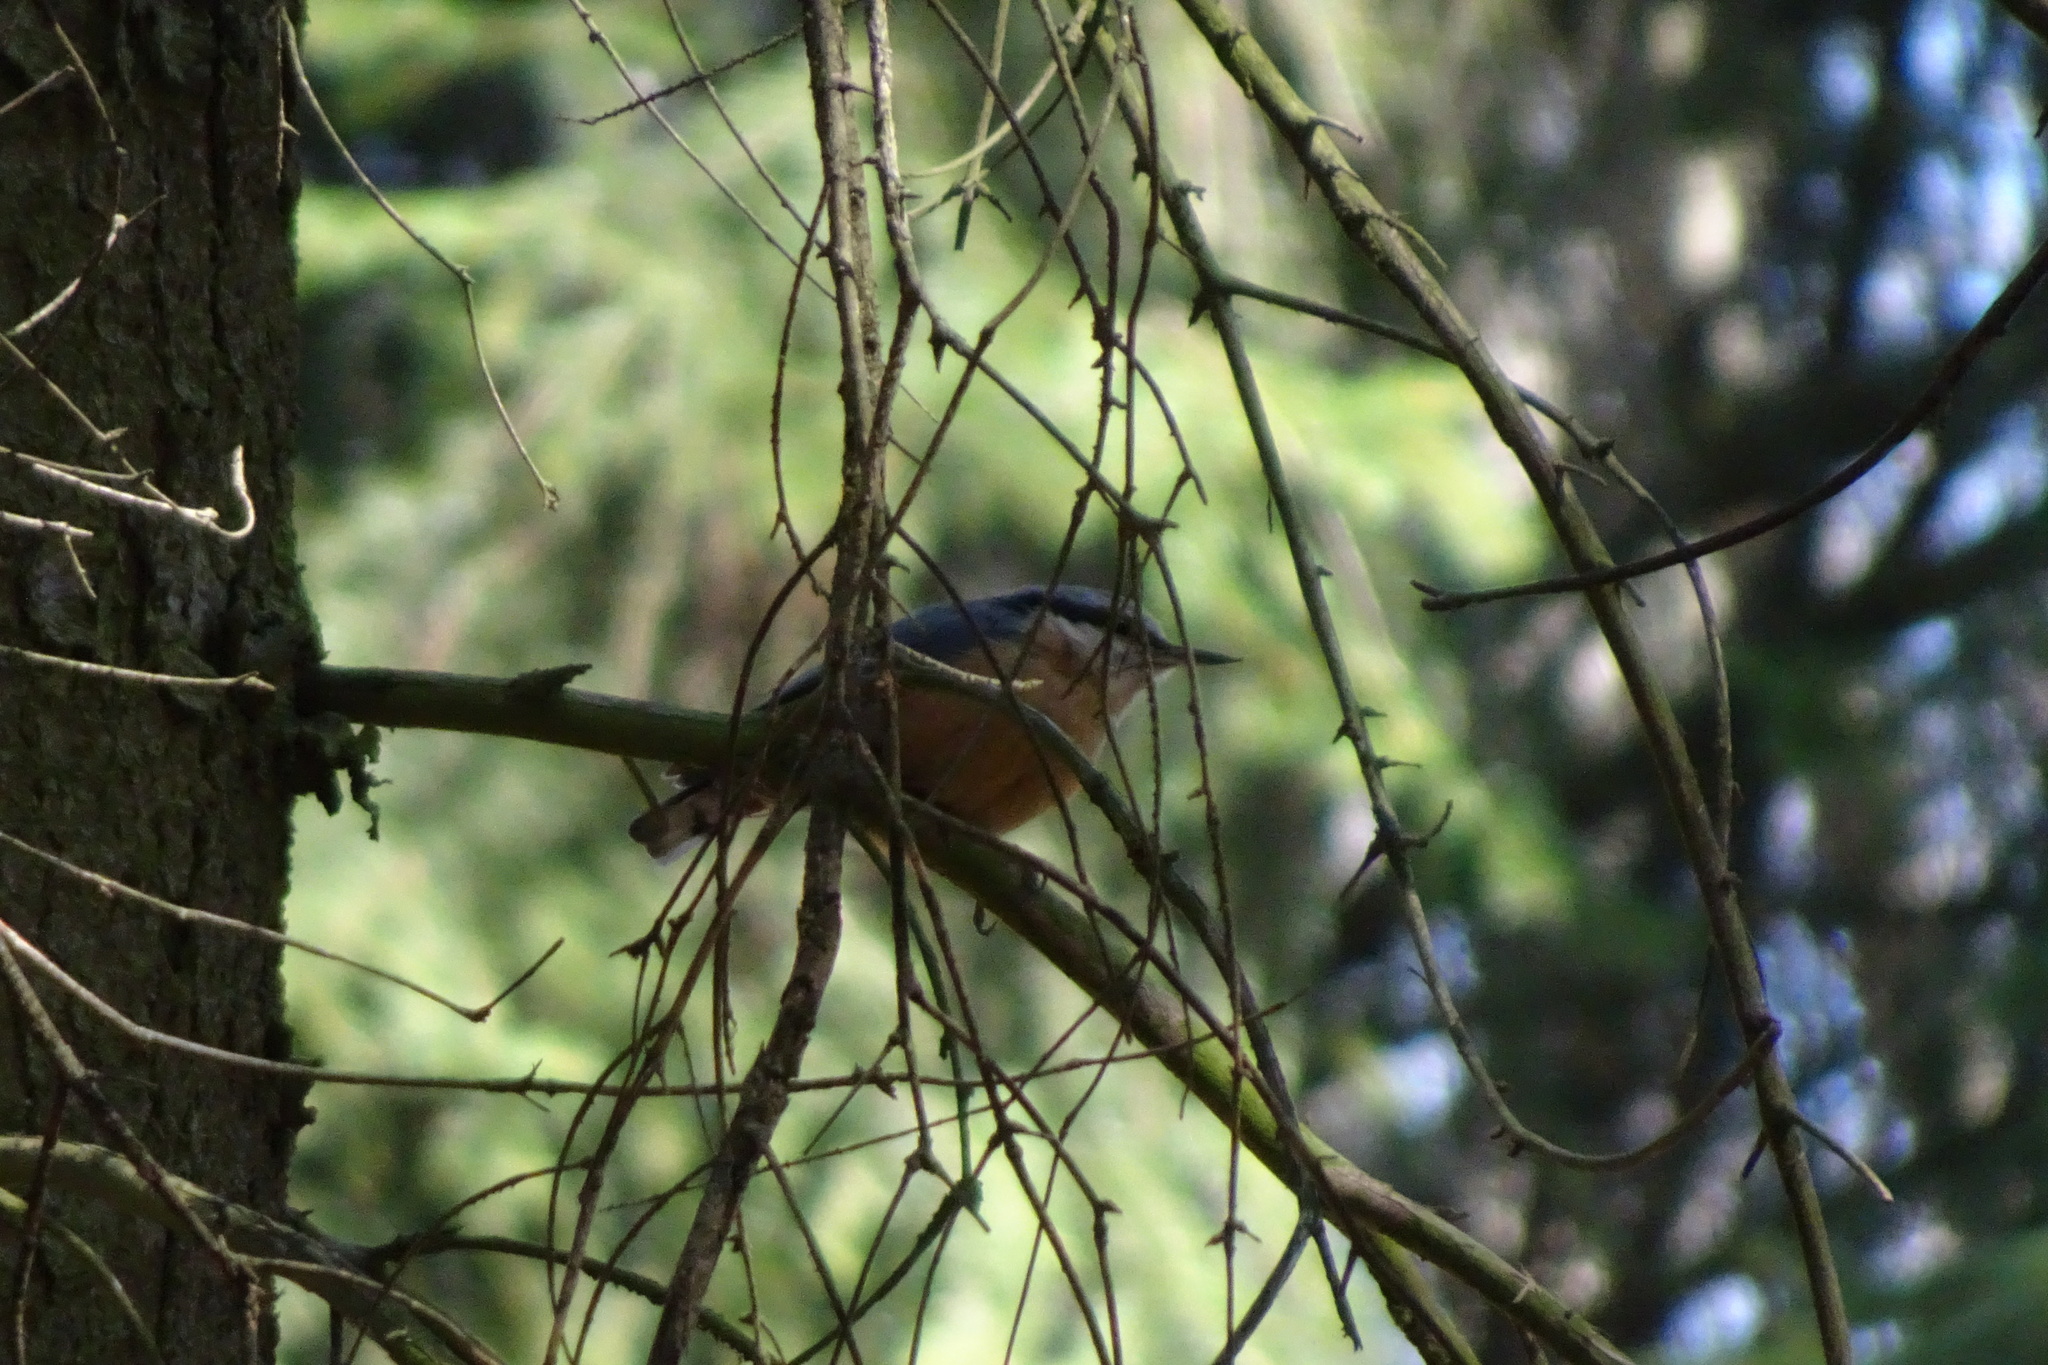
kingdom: Animalia
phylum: Chordata
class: Aves
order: Passeriformes
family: Sittidae
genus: Sitta
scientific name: Sitta europaea
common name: Eurasian nuthatch
